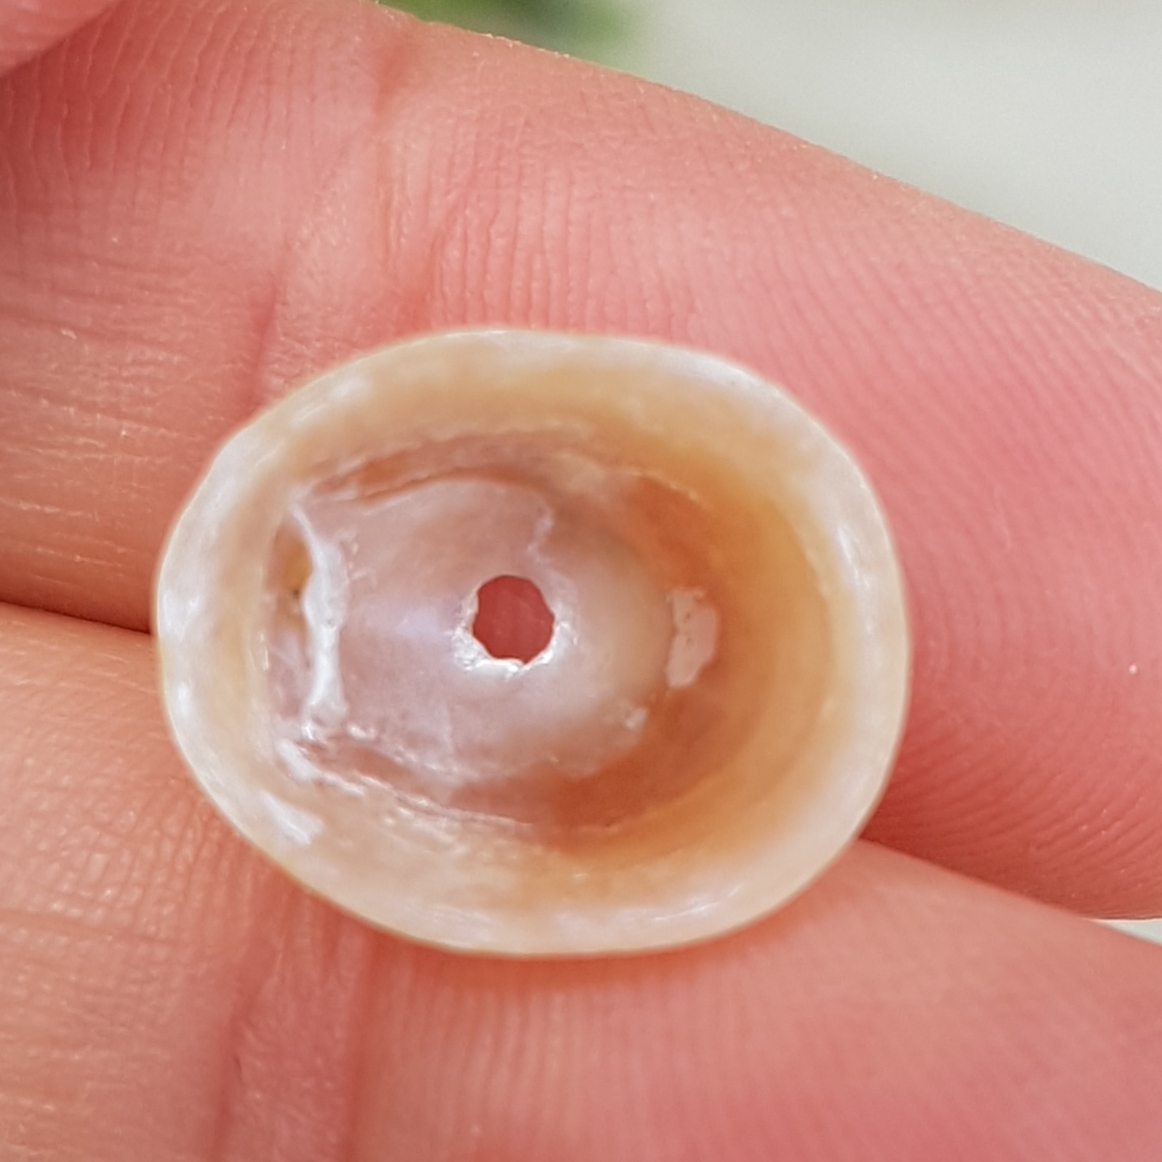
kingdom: Animalia
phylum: Mollusca
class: Gastropoda
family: Patellidae
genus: Patella
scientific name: Patella pellucida
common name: Blue-rayed limpet
